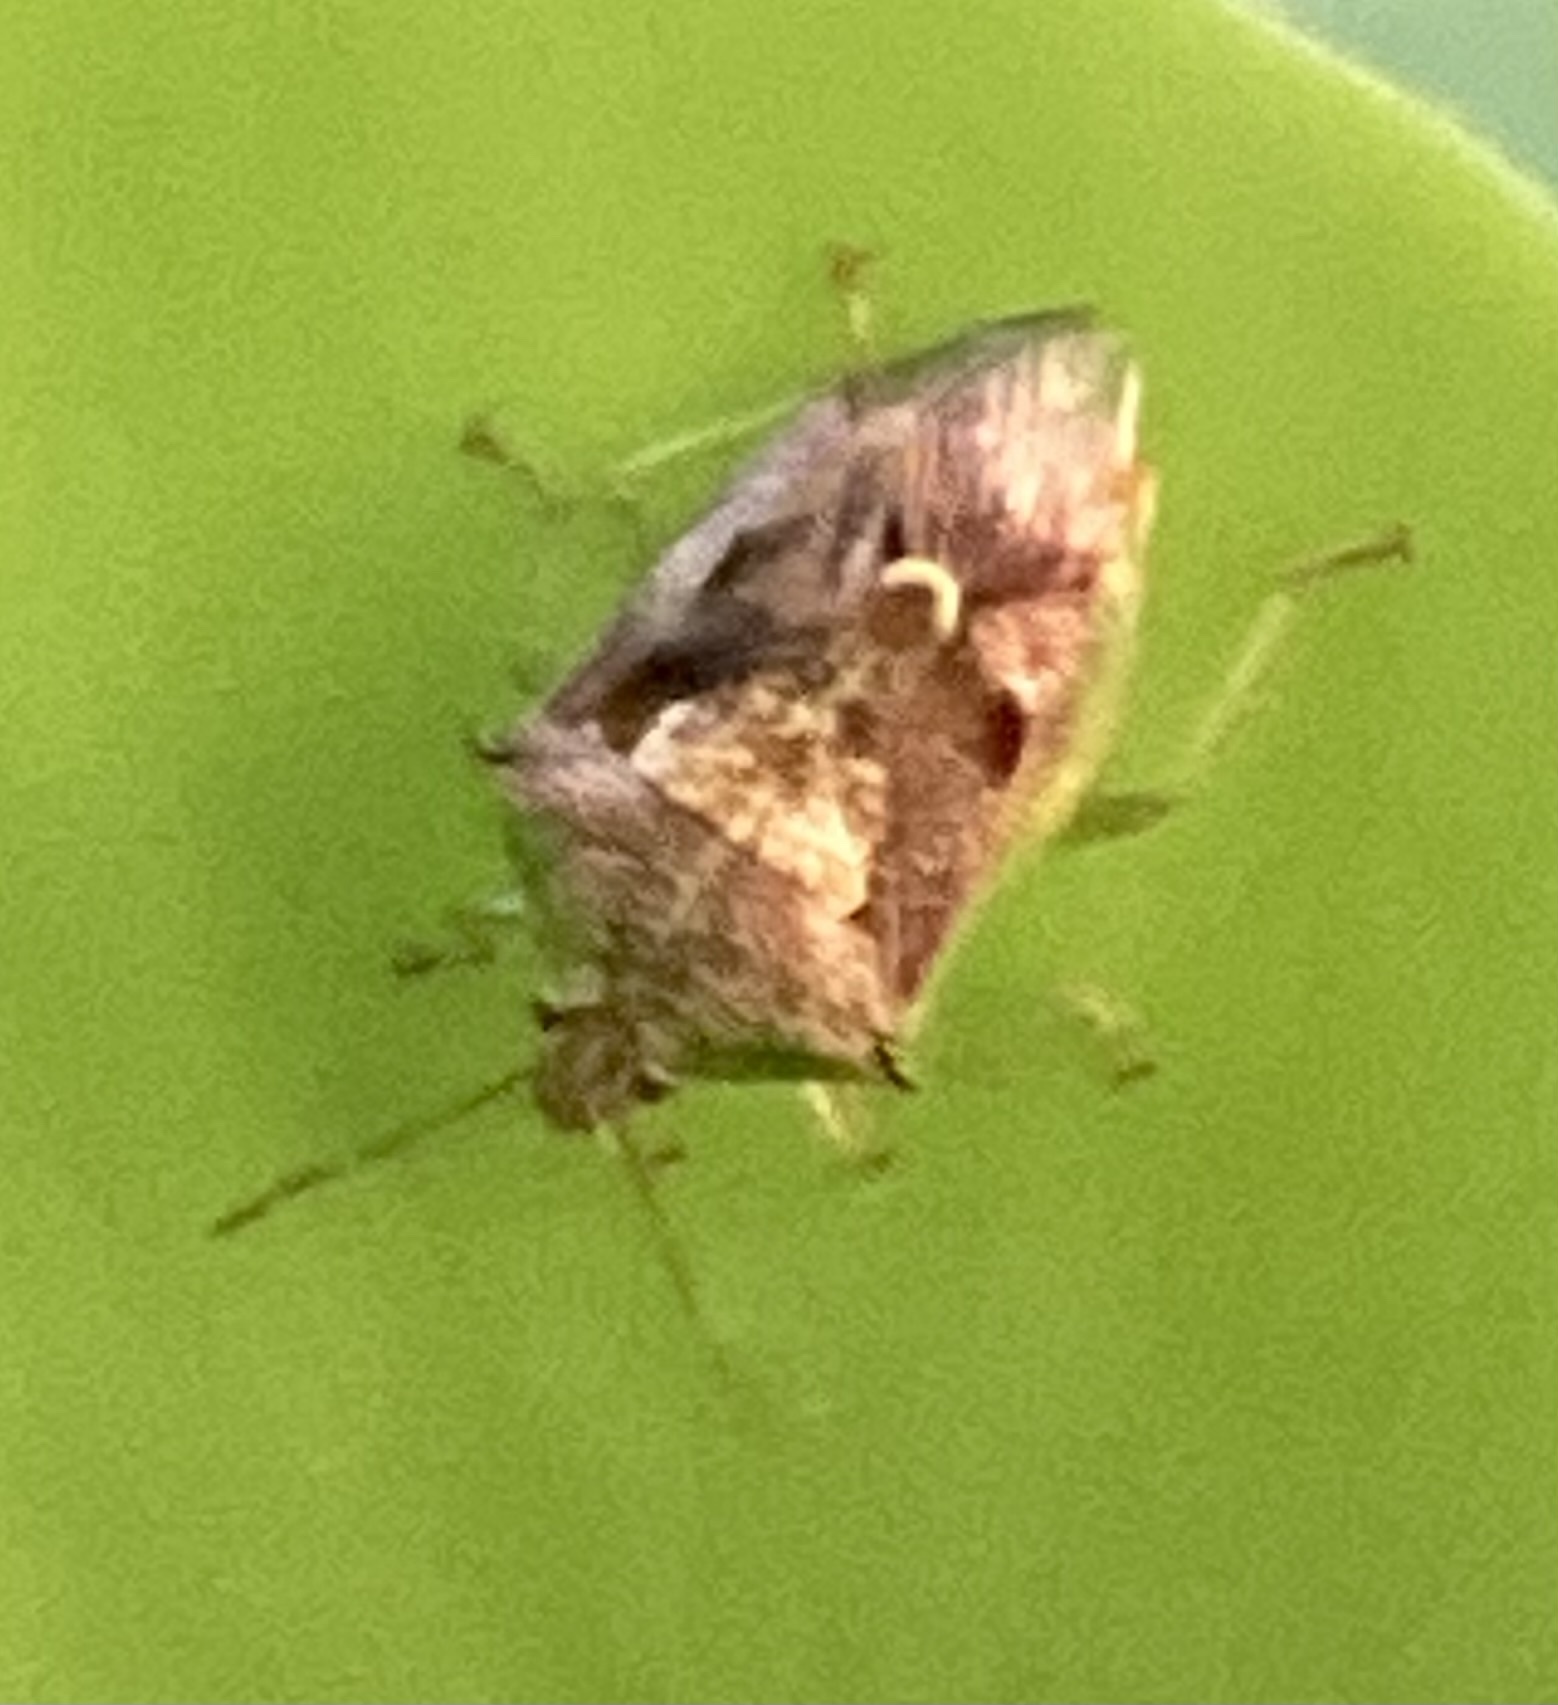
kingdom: Animalia
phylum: Arthropoda
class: Insecta
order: Hemiptera
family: Pentatomidae
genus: Tyrannocoris
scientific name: Tyrannocoris jole
